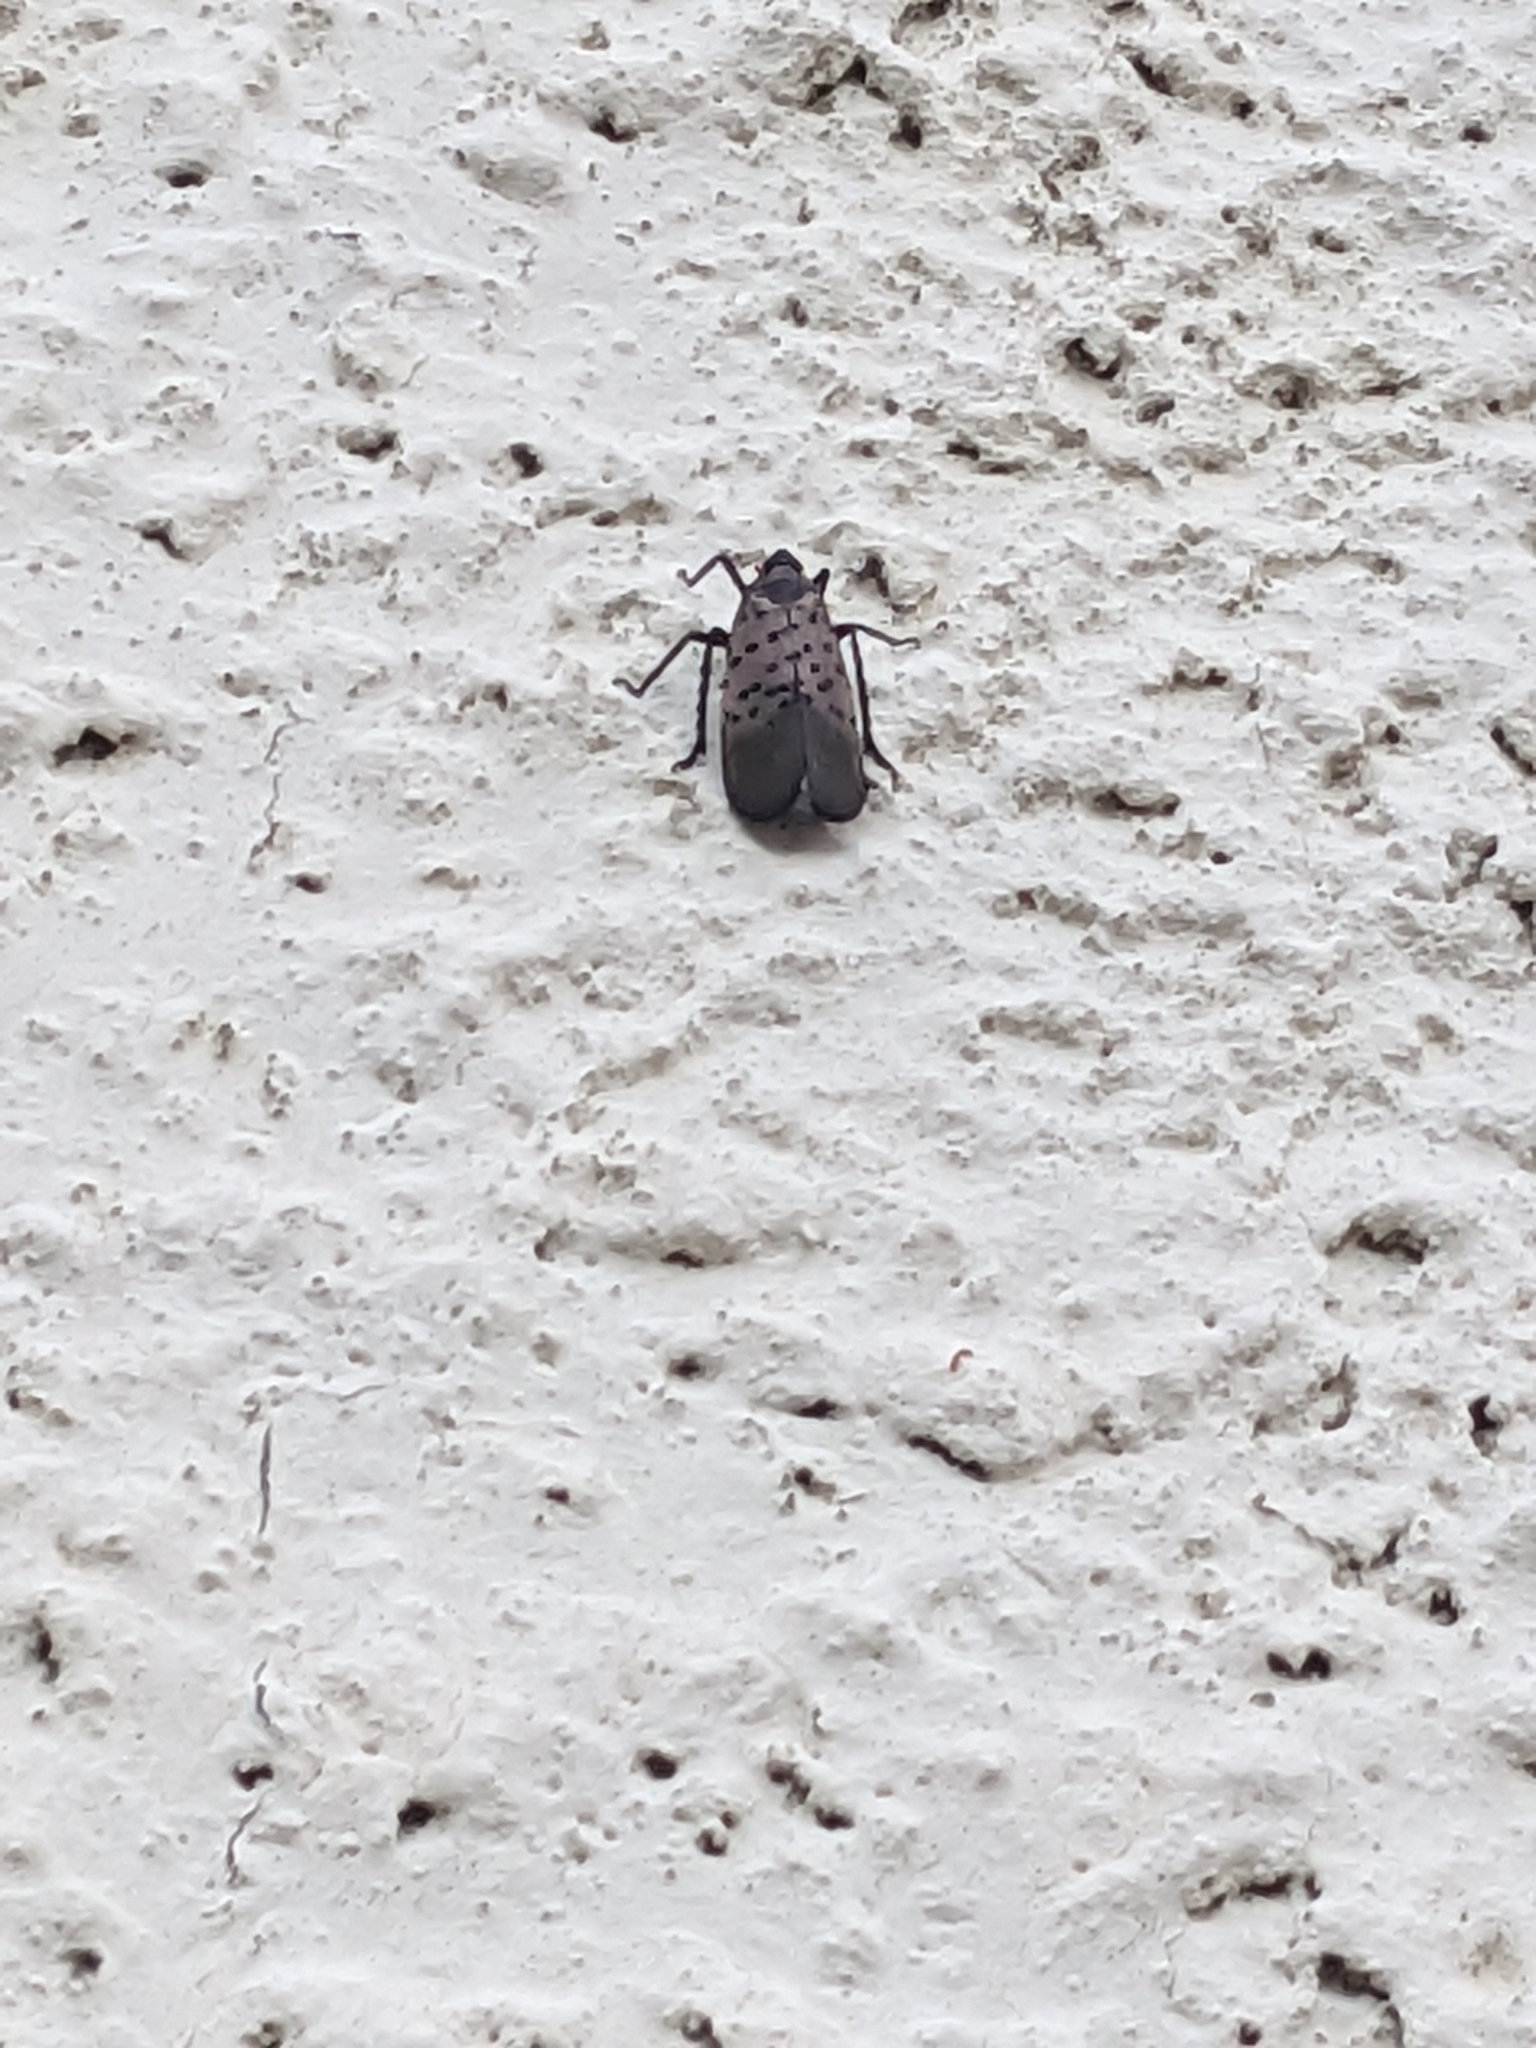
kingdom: Animalia
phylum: Arthropoda
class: Insecta
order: Hemiptera
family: Fulgoridae
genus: Lycorma
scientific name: Lycorma delicatula
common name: Spotted lanternfly
